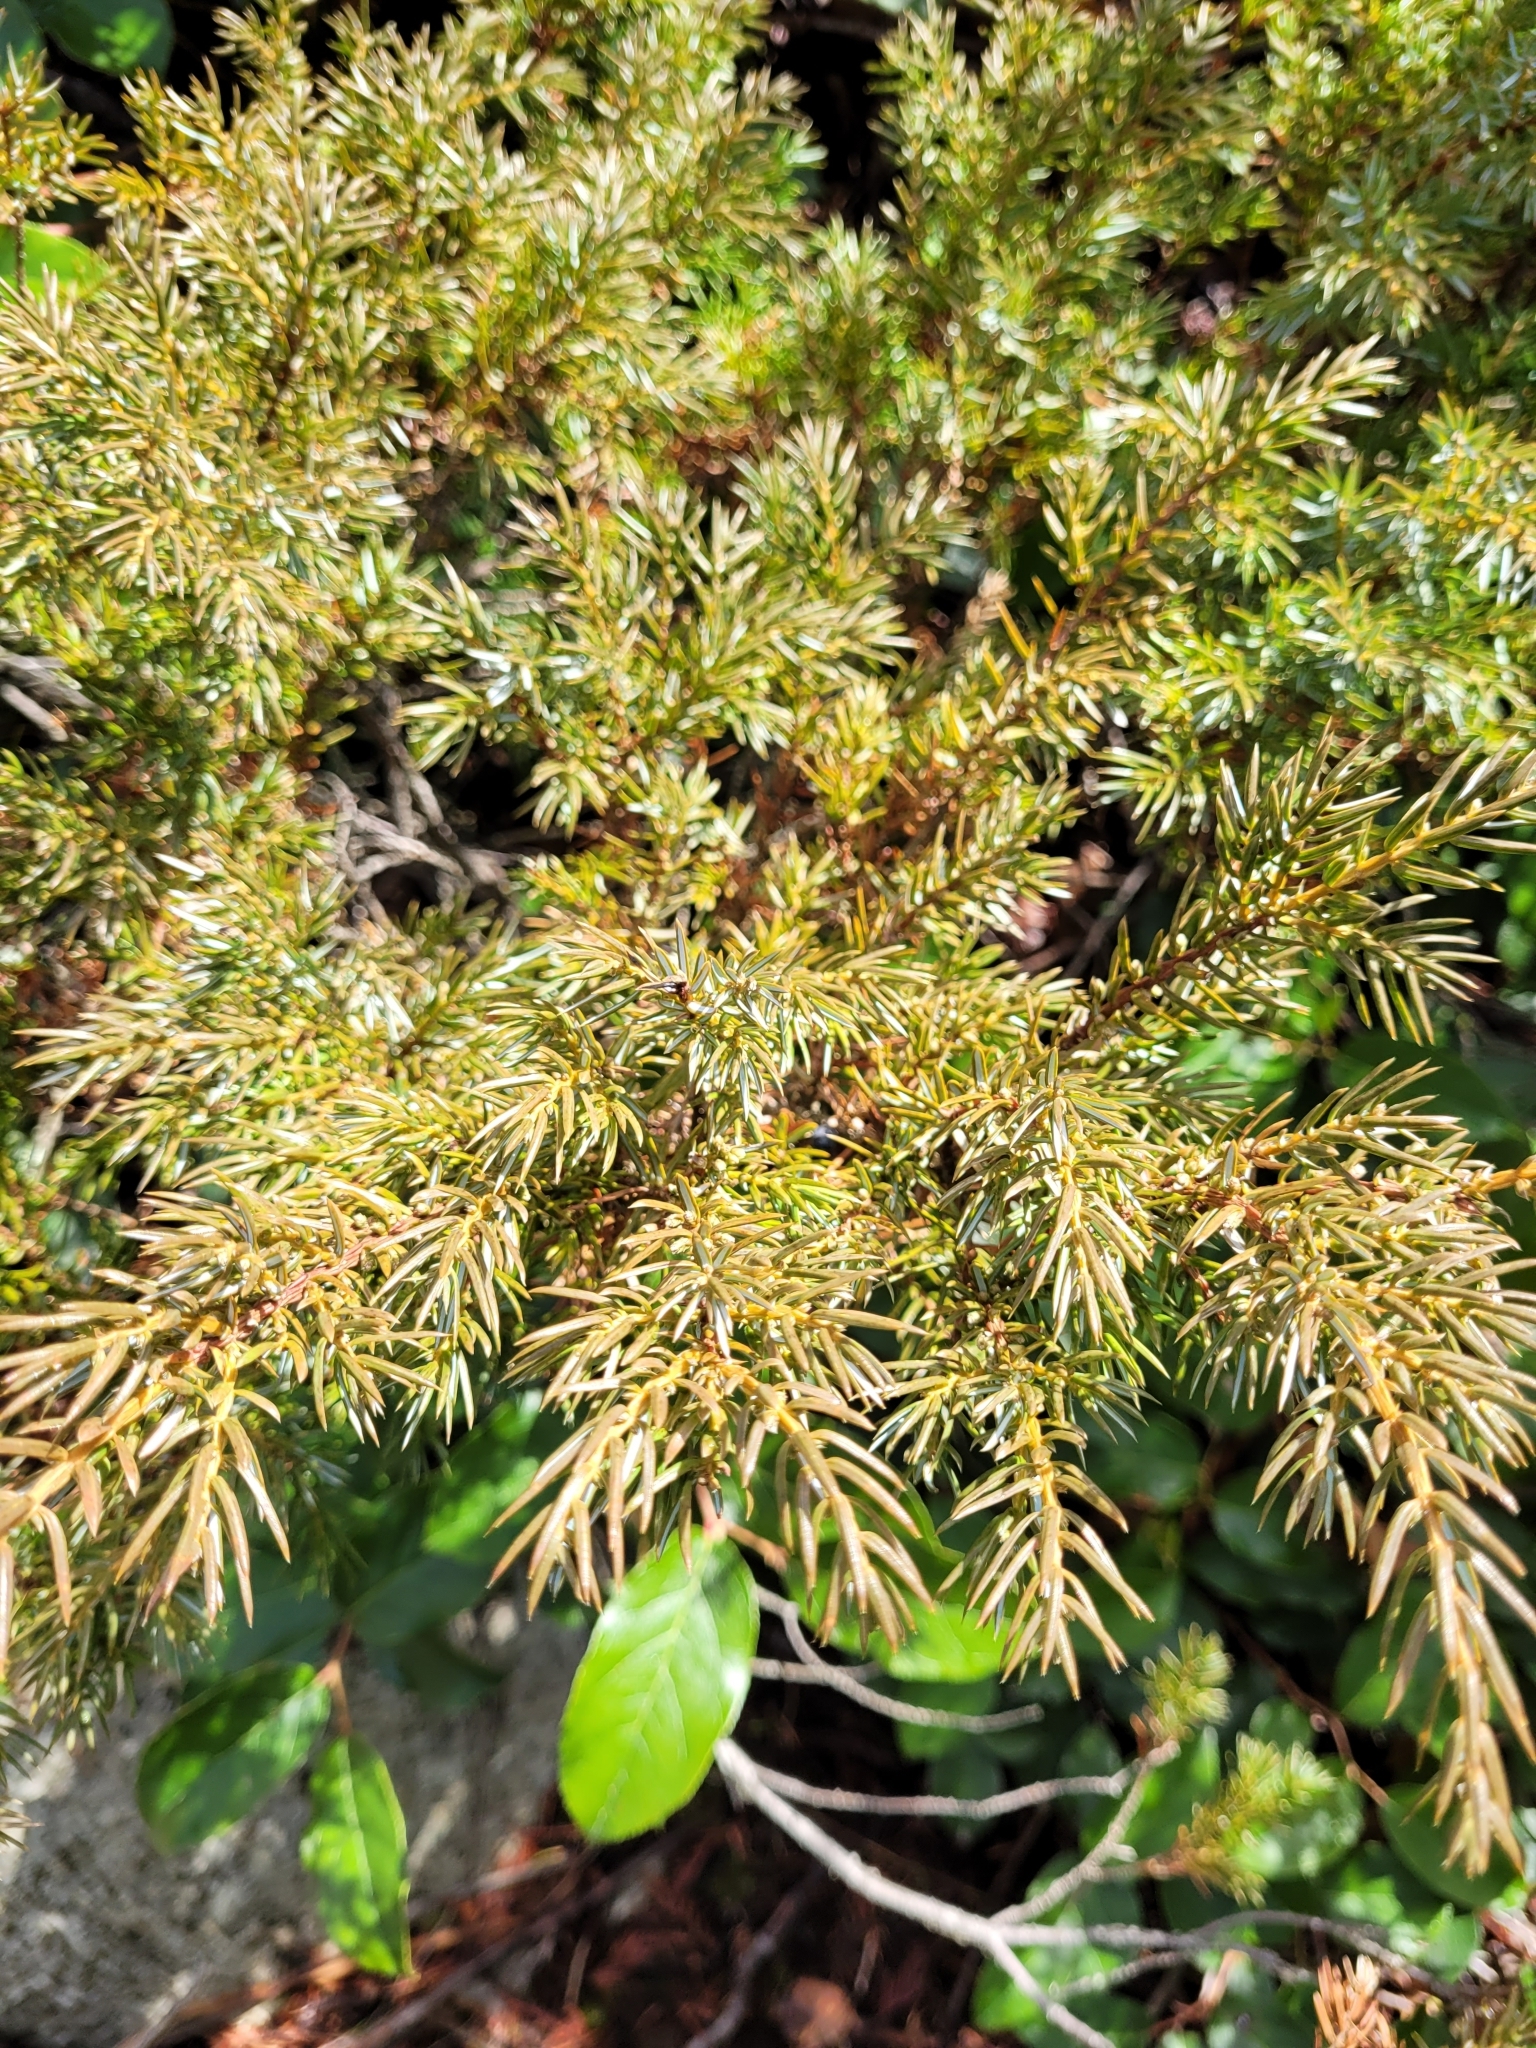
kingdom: Plantae
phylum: Tracheophyta
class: Pinopsida
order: Pinales
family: Cupressaceae
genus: Juniperus
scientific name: Juniperus communis
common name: Common juniper
